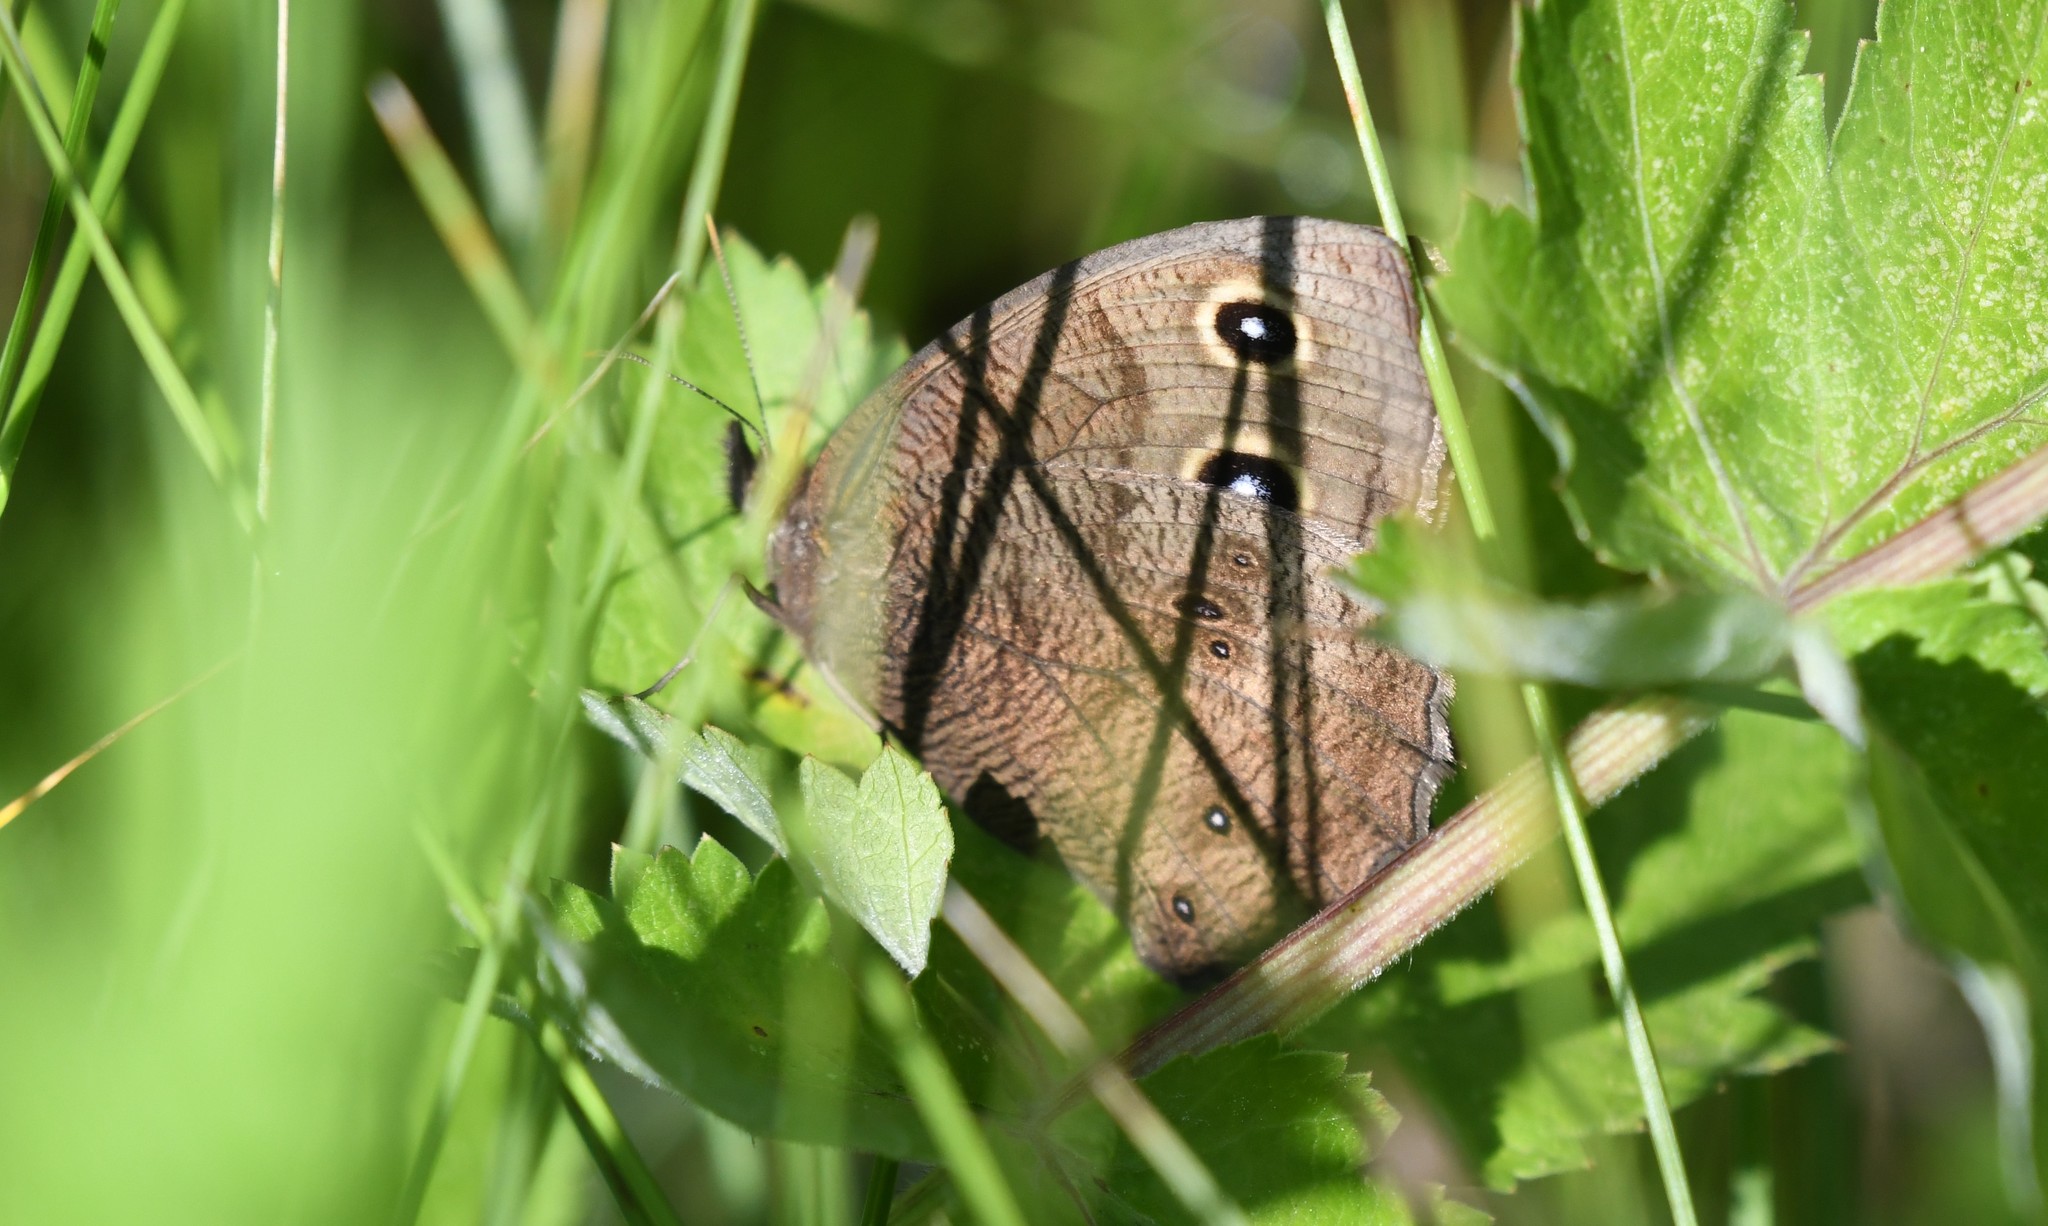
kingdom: Animalia
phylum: Arthropoda
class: Insecta
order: Lepidoptera
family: Nymphalidae
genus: Cercyonis
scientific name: Cercyonis pegala
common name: Common wood-nymph
